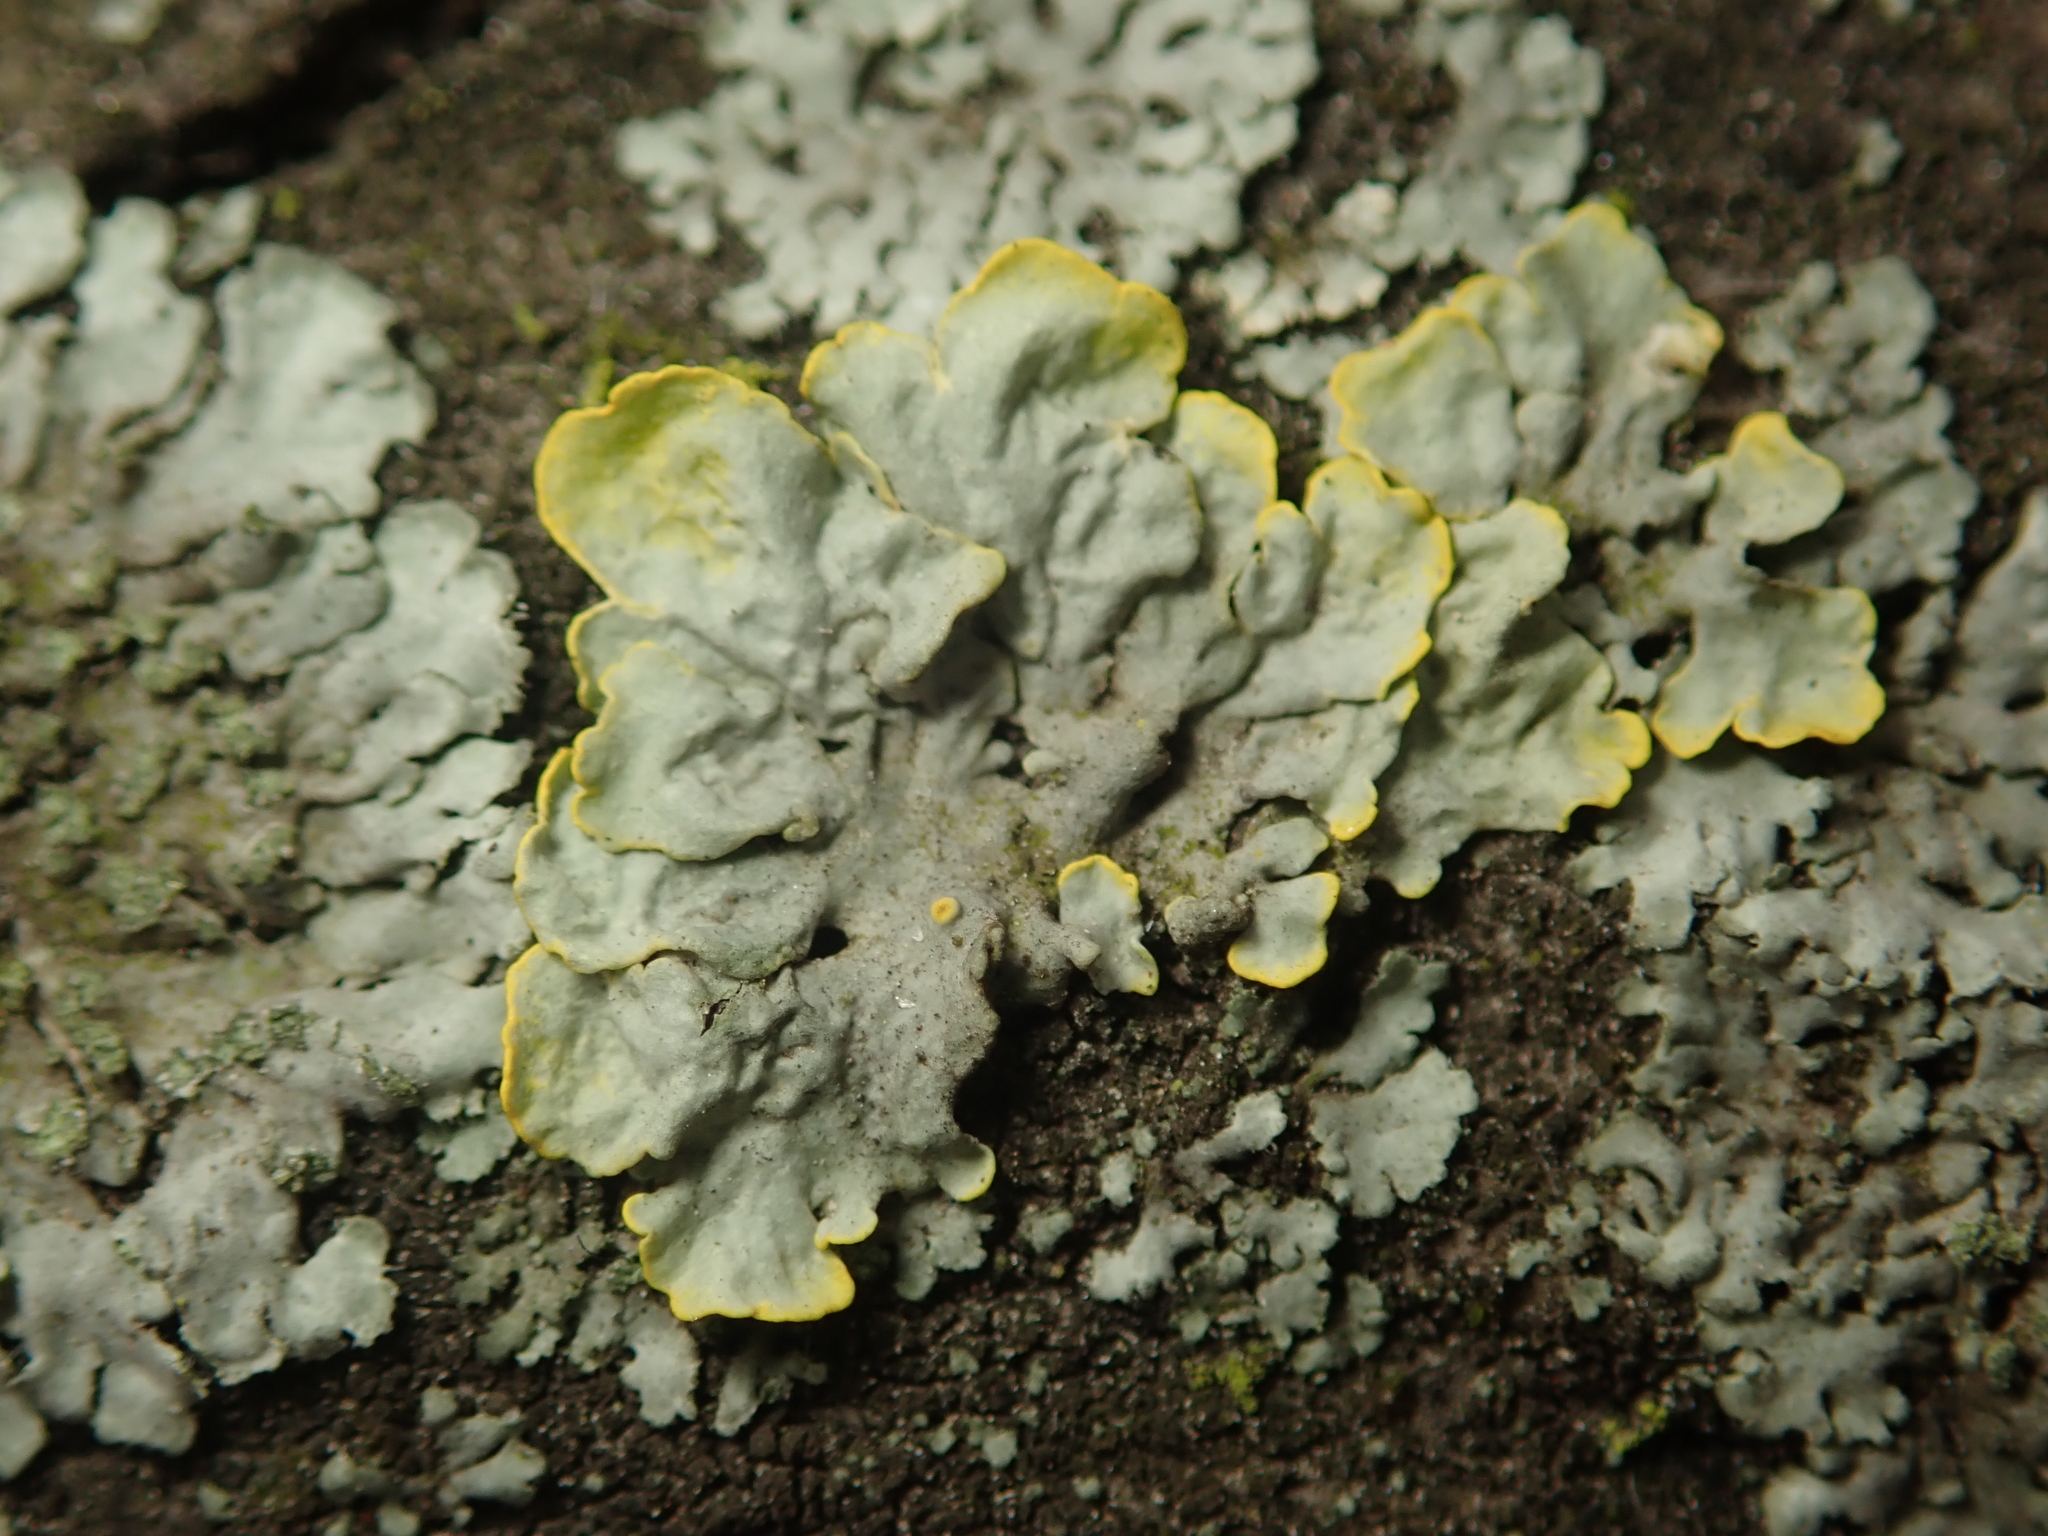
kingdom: Fungi
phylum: Ascomycota
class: Lecanoromycetes
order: Teloschistales
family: Teloschistaceae
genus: Xanthoria
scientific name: Xanthoria parietina
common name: Common orange lichen
